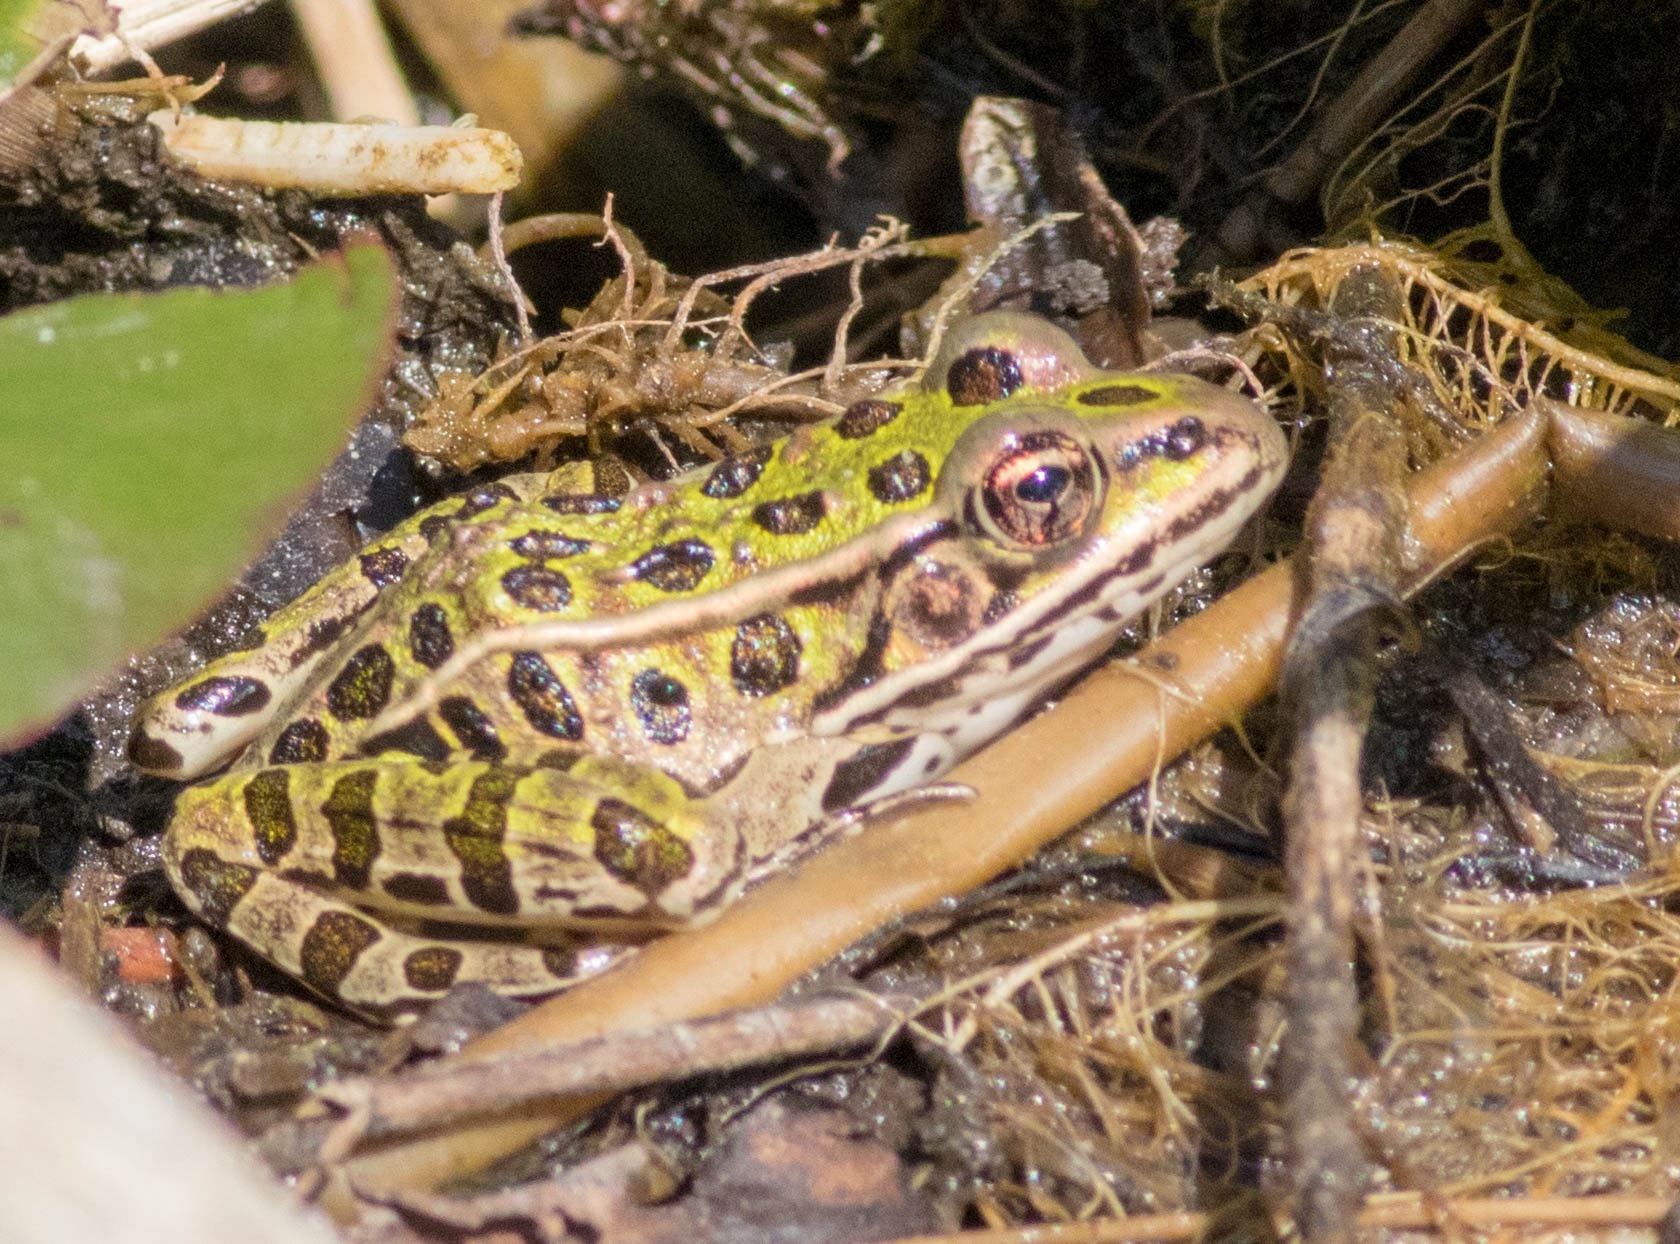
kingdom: Animalia
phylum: Chordata
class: Amphibia
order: Anura
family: Ranidae
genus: Lithobates
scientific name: Lithobates pipiens
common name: Northern leopard frog
